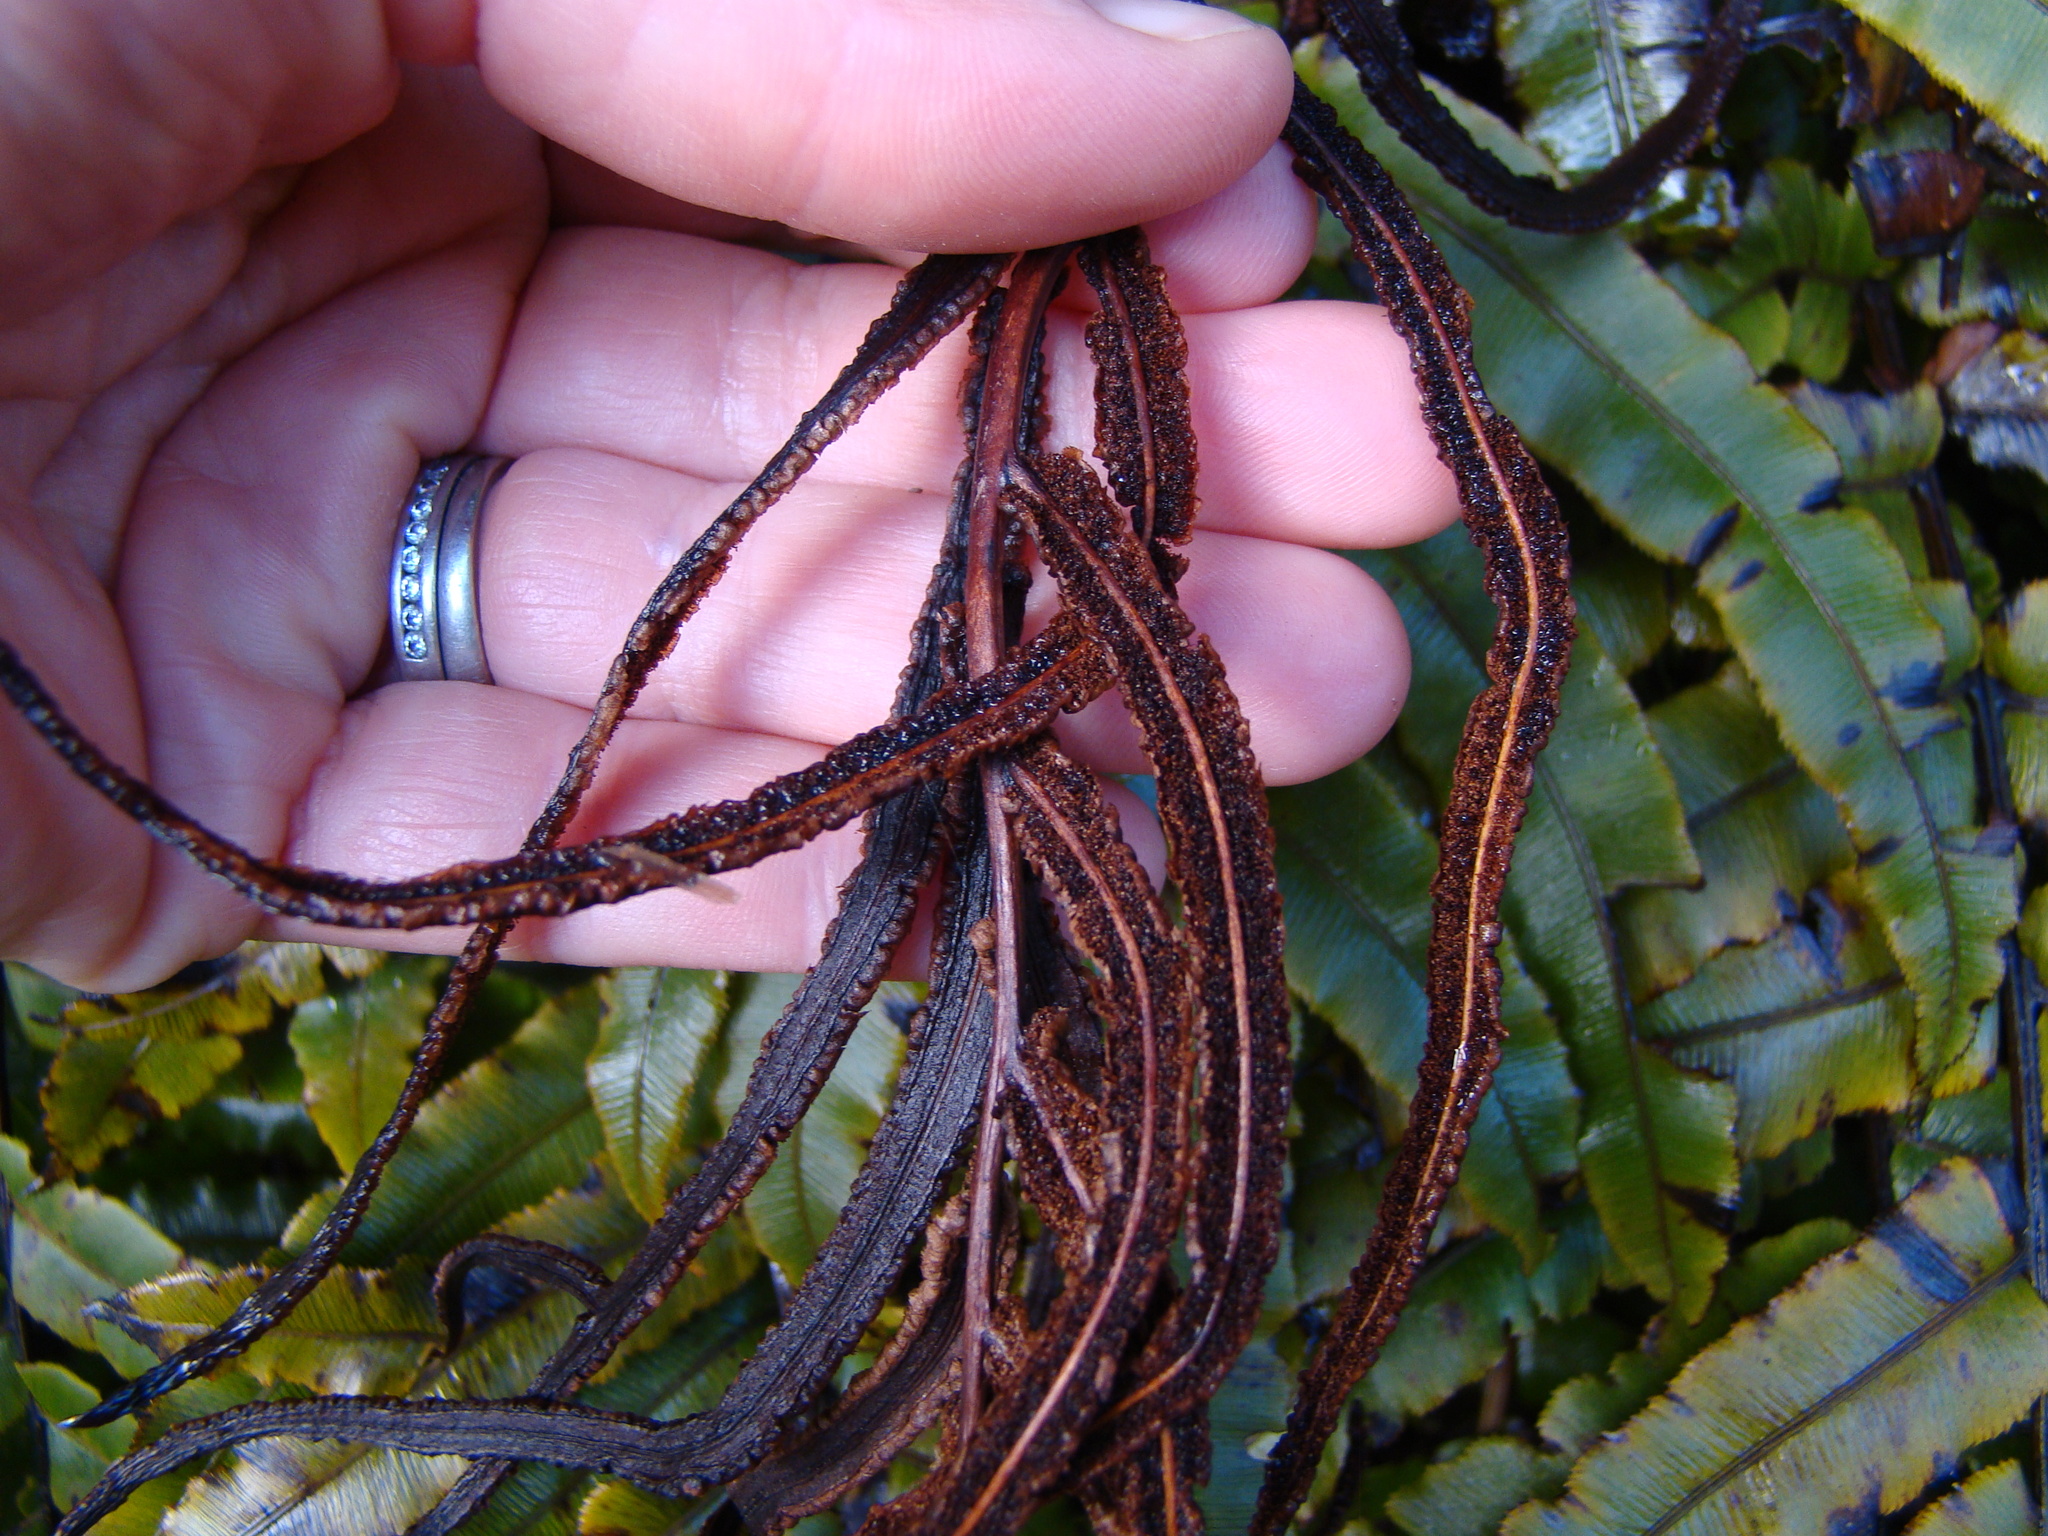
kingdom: Plantae
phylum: Tracheophyta
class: Polypodiopsida
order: Polypodiales
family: Blechnaceae
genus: Parablechnum
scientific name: Parablechnum montanum
